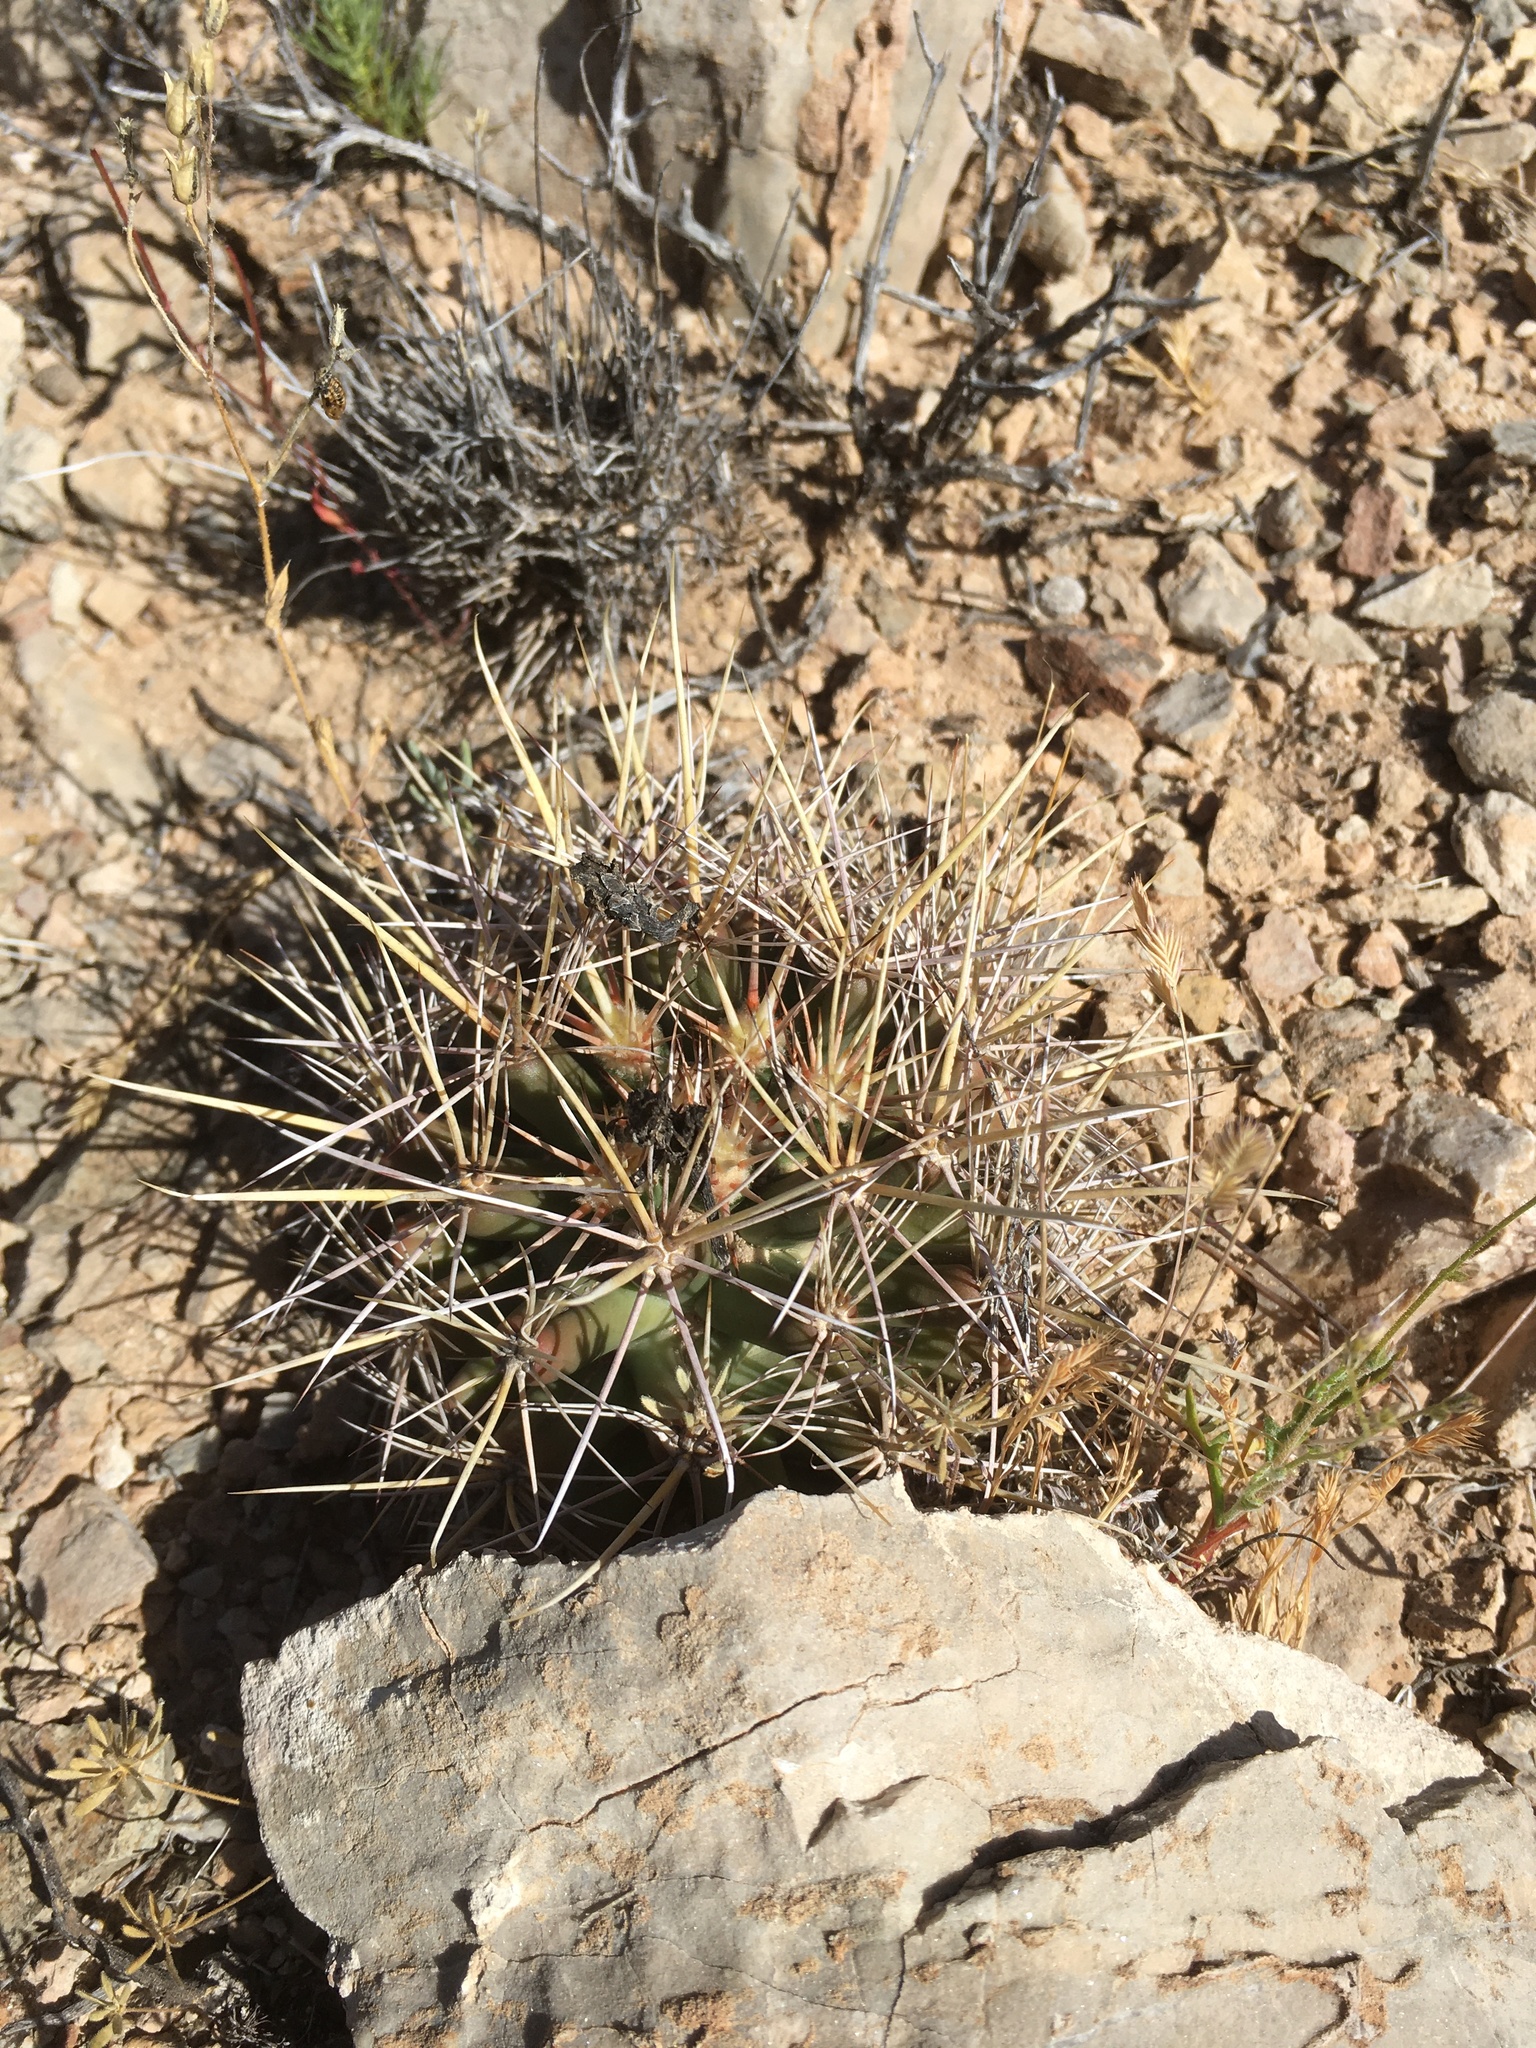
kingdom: Plantae
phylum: Tracheophyta
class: Magnoliopsida
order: Caryophyllales
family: Cactaceae
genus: Coryphantha
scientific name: Coryphantha robustispina
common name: Pima pineapple cactus
